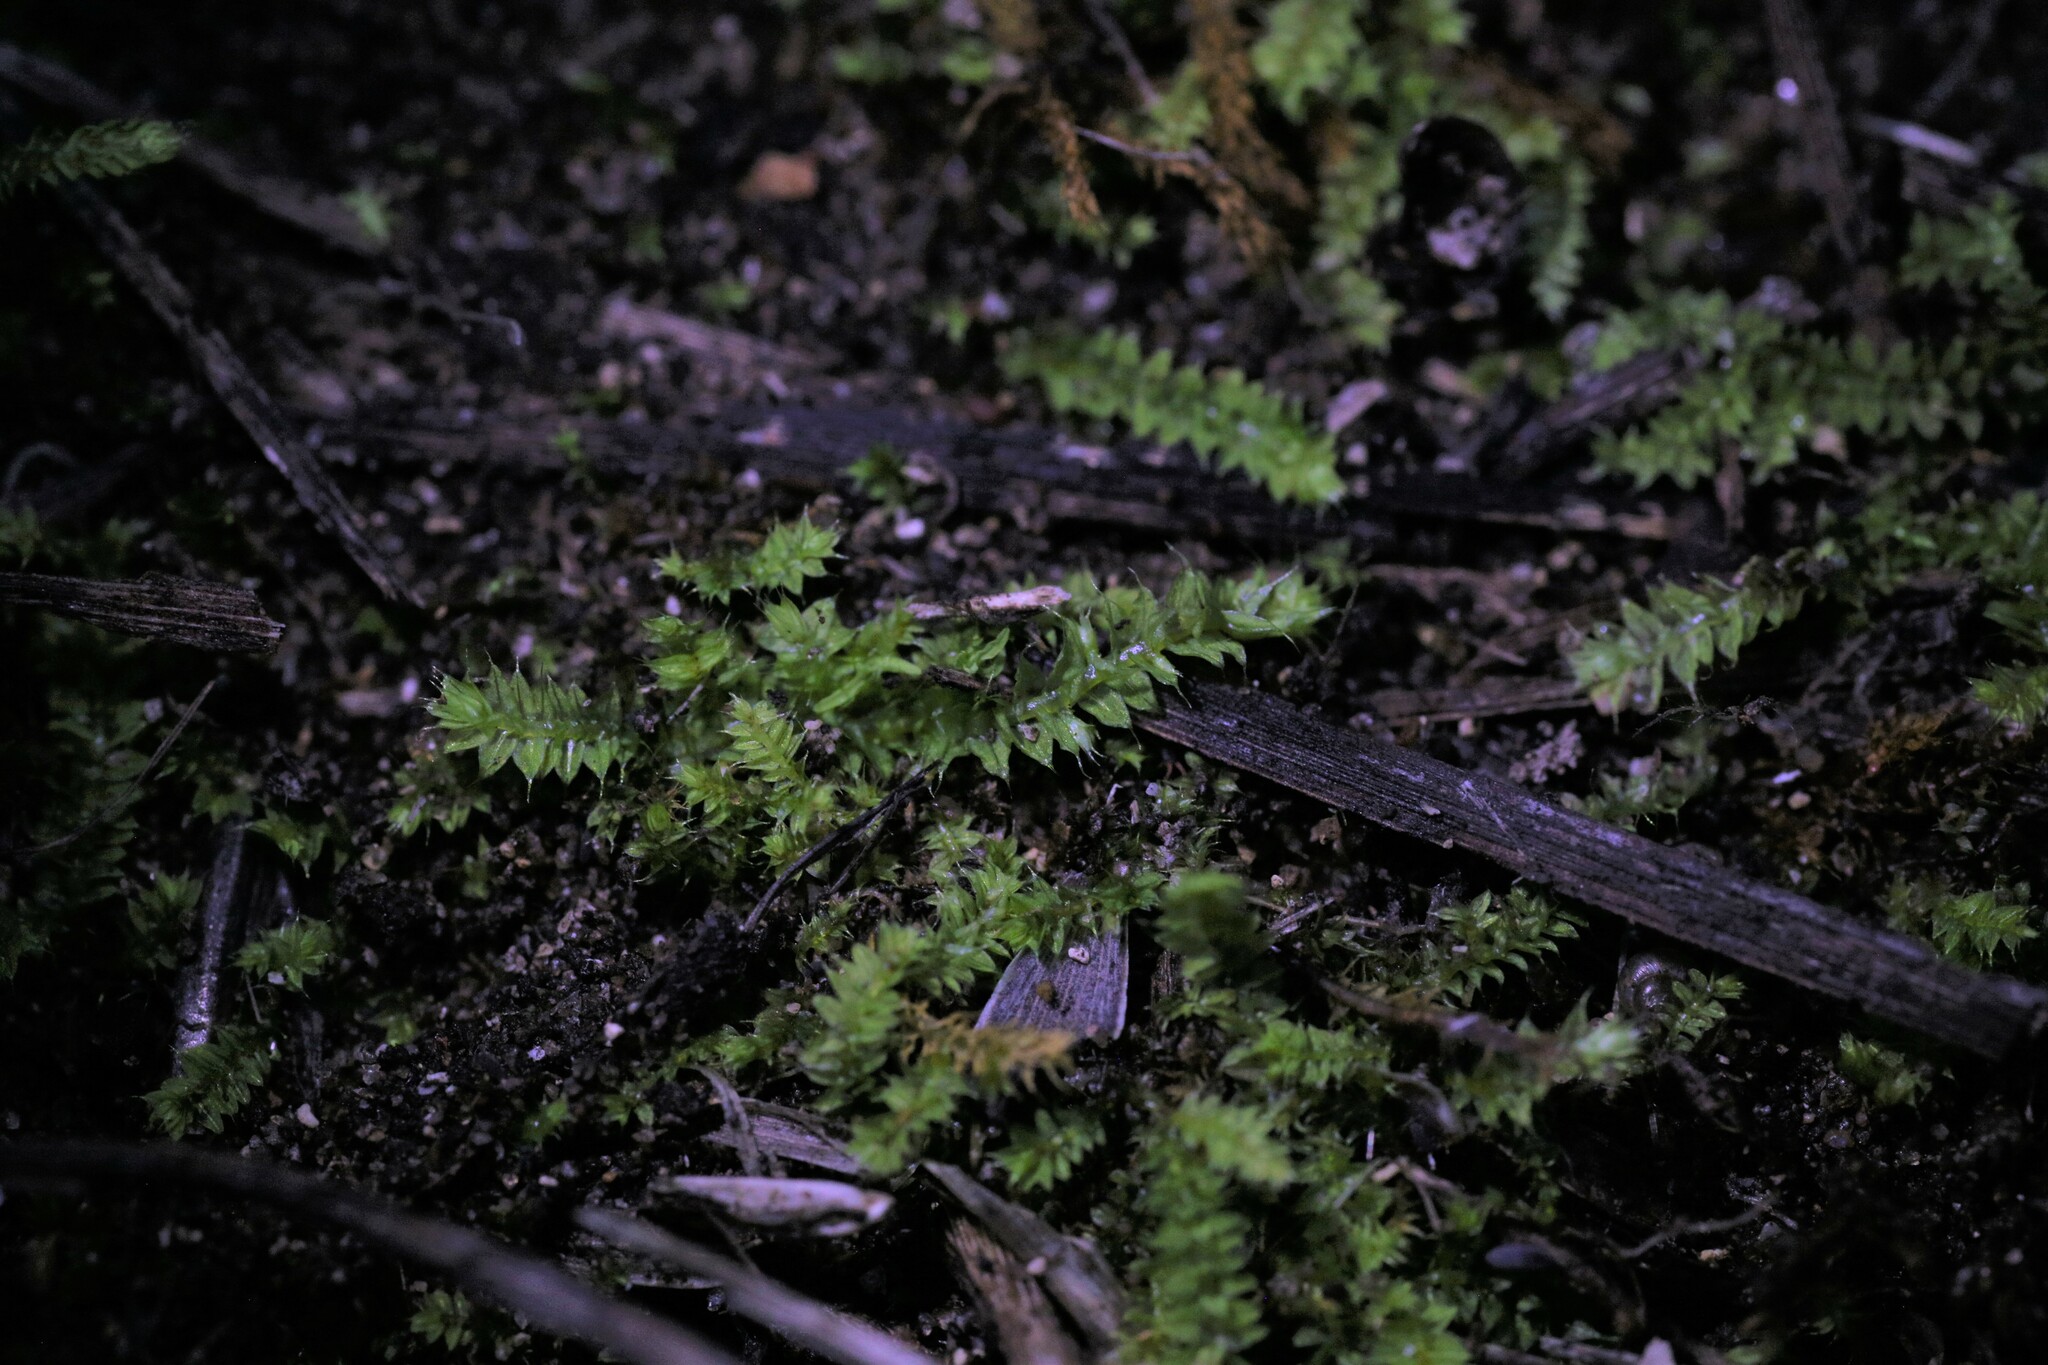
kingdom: Plantae
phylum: Bryophyta
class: Bryopsida
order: Hypnodendrales
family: Racopilaceae
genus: Racopilum
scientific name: Racopilum cuspidigerum
